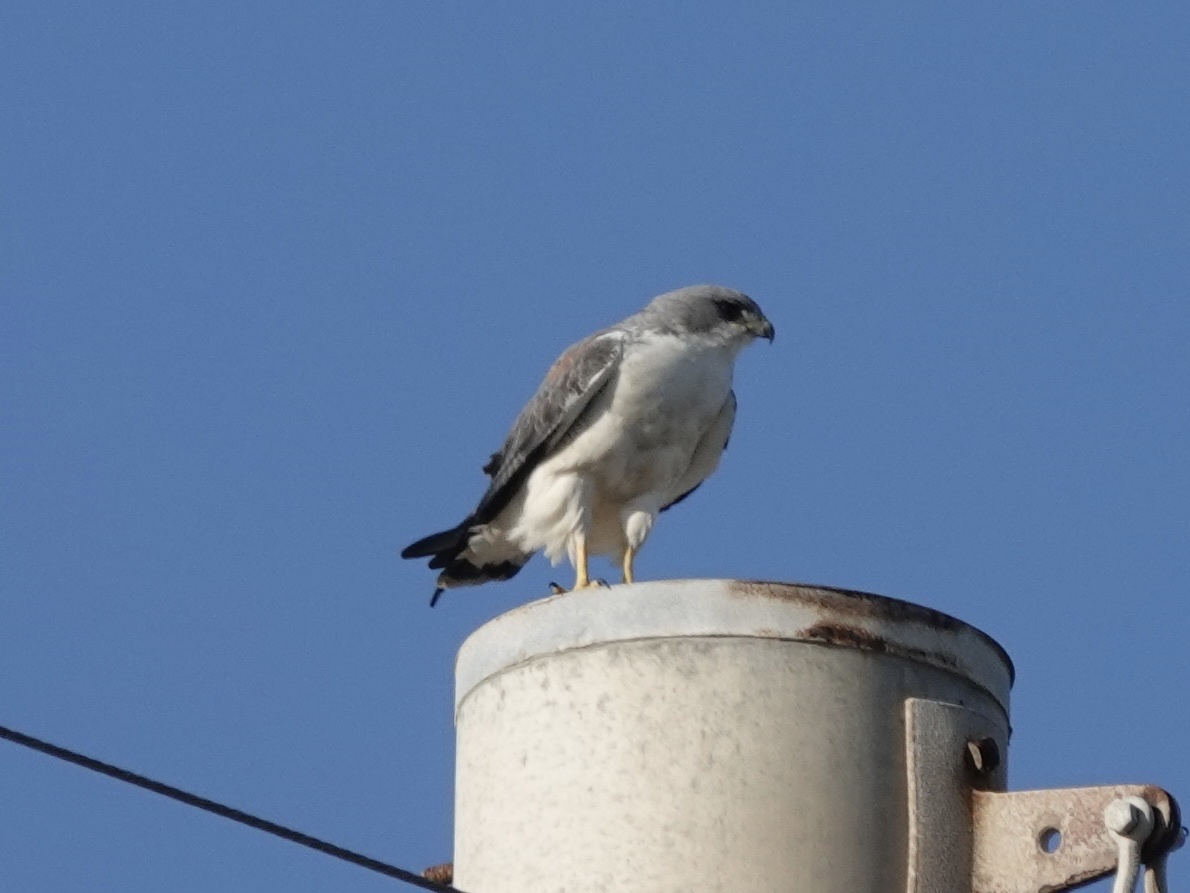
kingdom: Animalia
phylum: Chordata
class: Aves
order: Accipitriformes
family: Accipitridae
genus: Buteo
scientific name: Buteo albicaudatus
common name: White-tailed hawk
